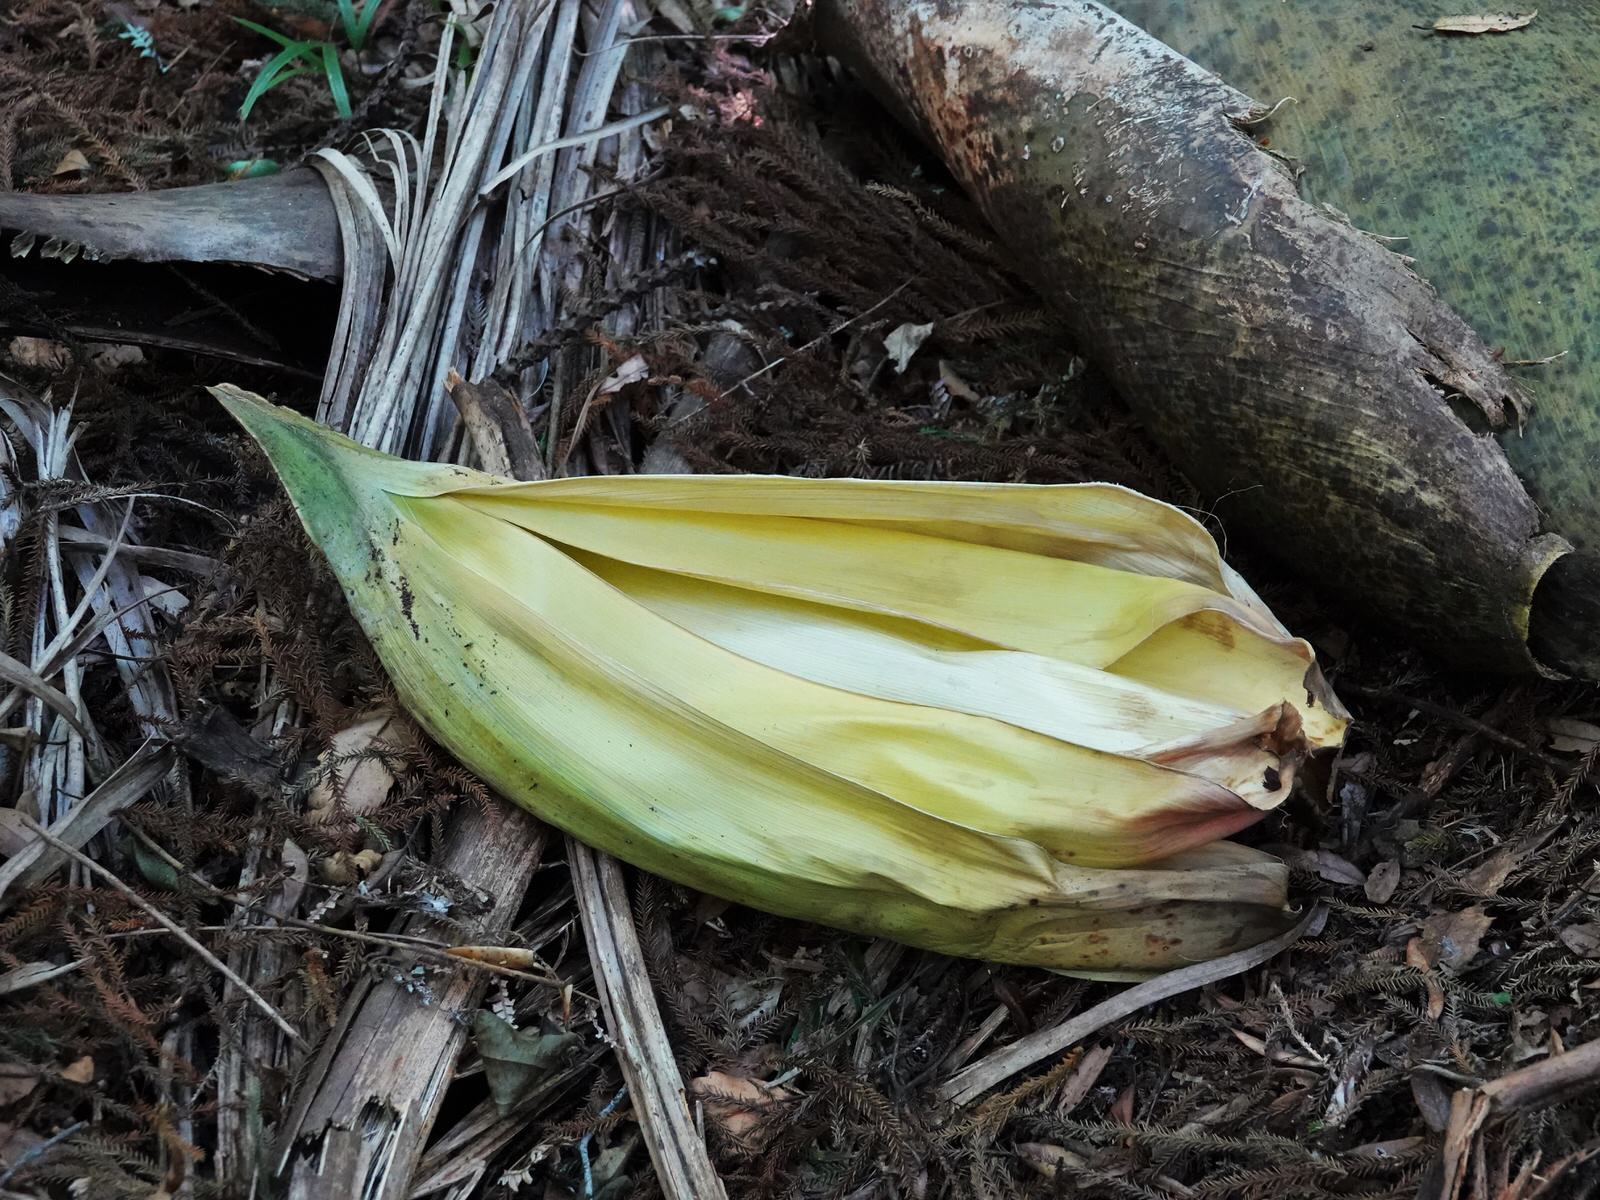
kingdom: Plantae
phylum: Tracheophyta
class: Liliopsida
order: Arecales
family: Arecaceae
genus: Rhopalostylis
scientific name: Rhopalostylis sapida
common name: Feather-duster palm
